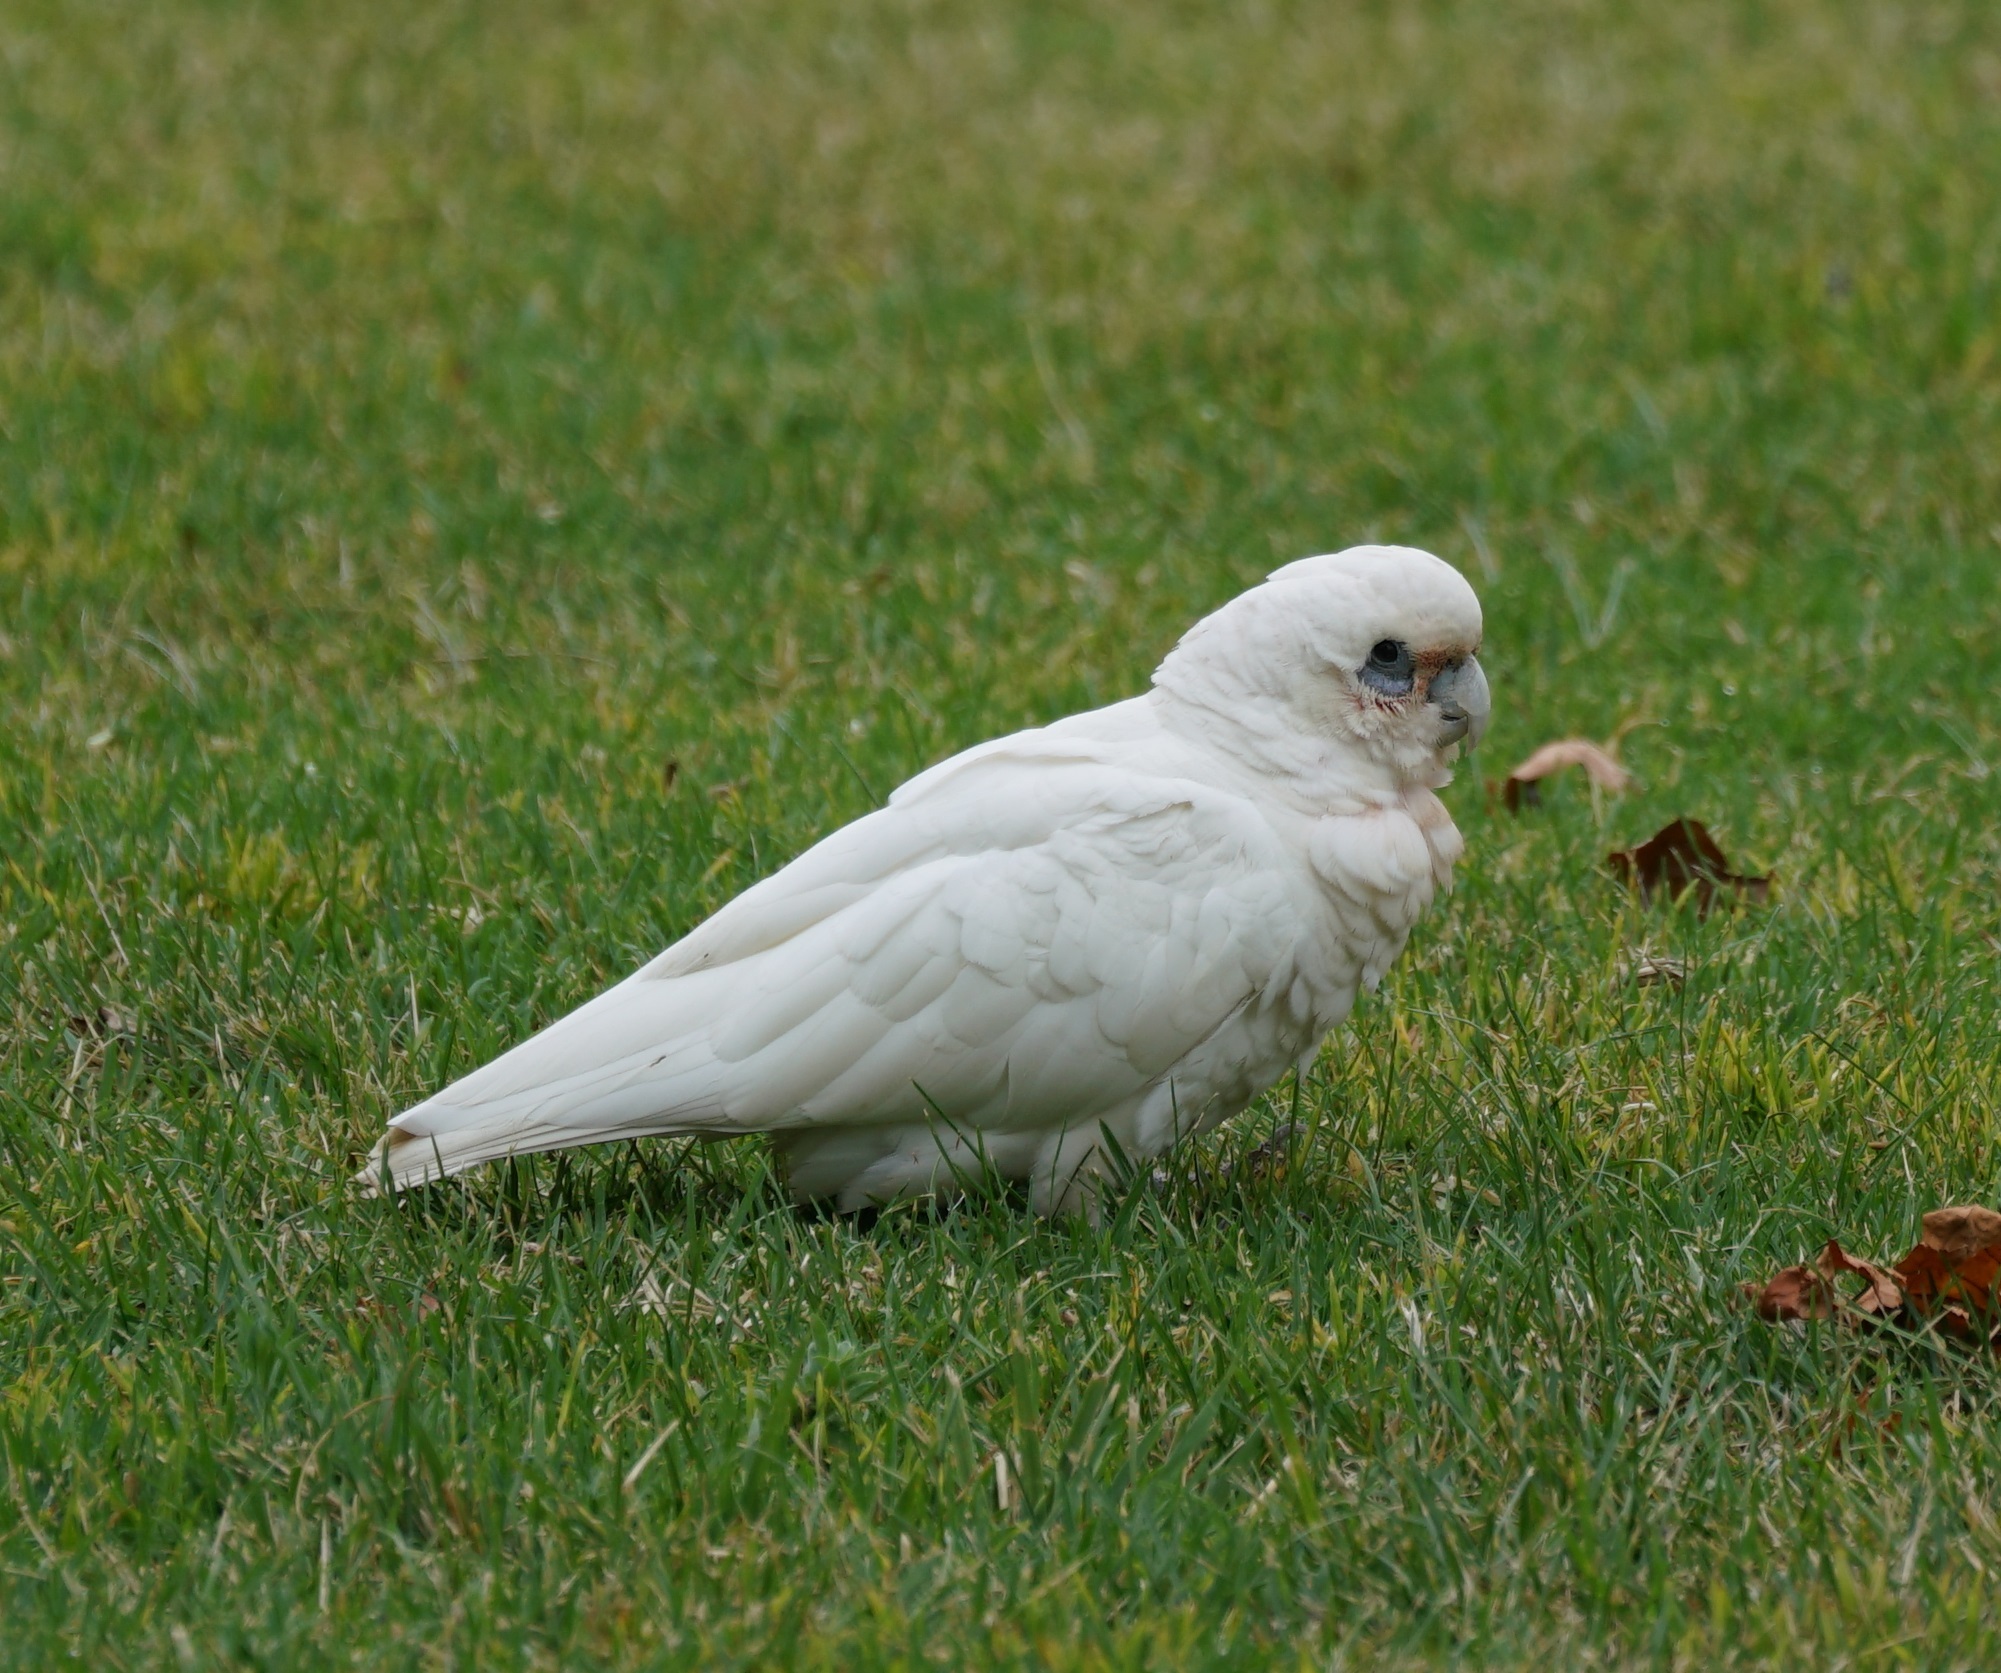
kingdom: Animalia
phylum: Chordata
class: Aves
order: Psittaciformes
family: Psittacidae
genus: Cacatua
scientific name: Cacatua sanguinea
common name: Little corella
